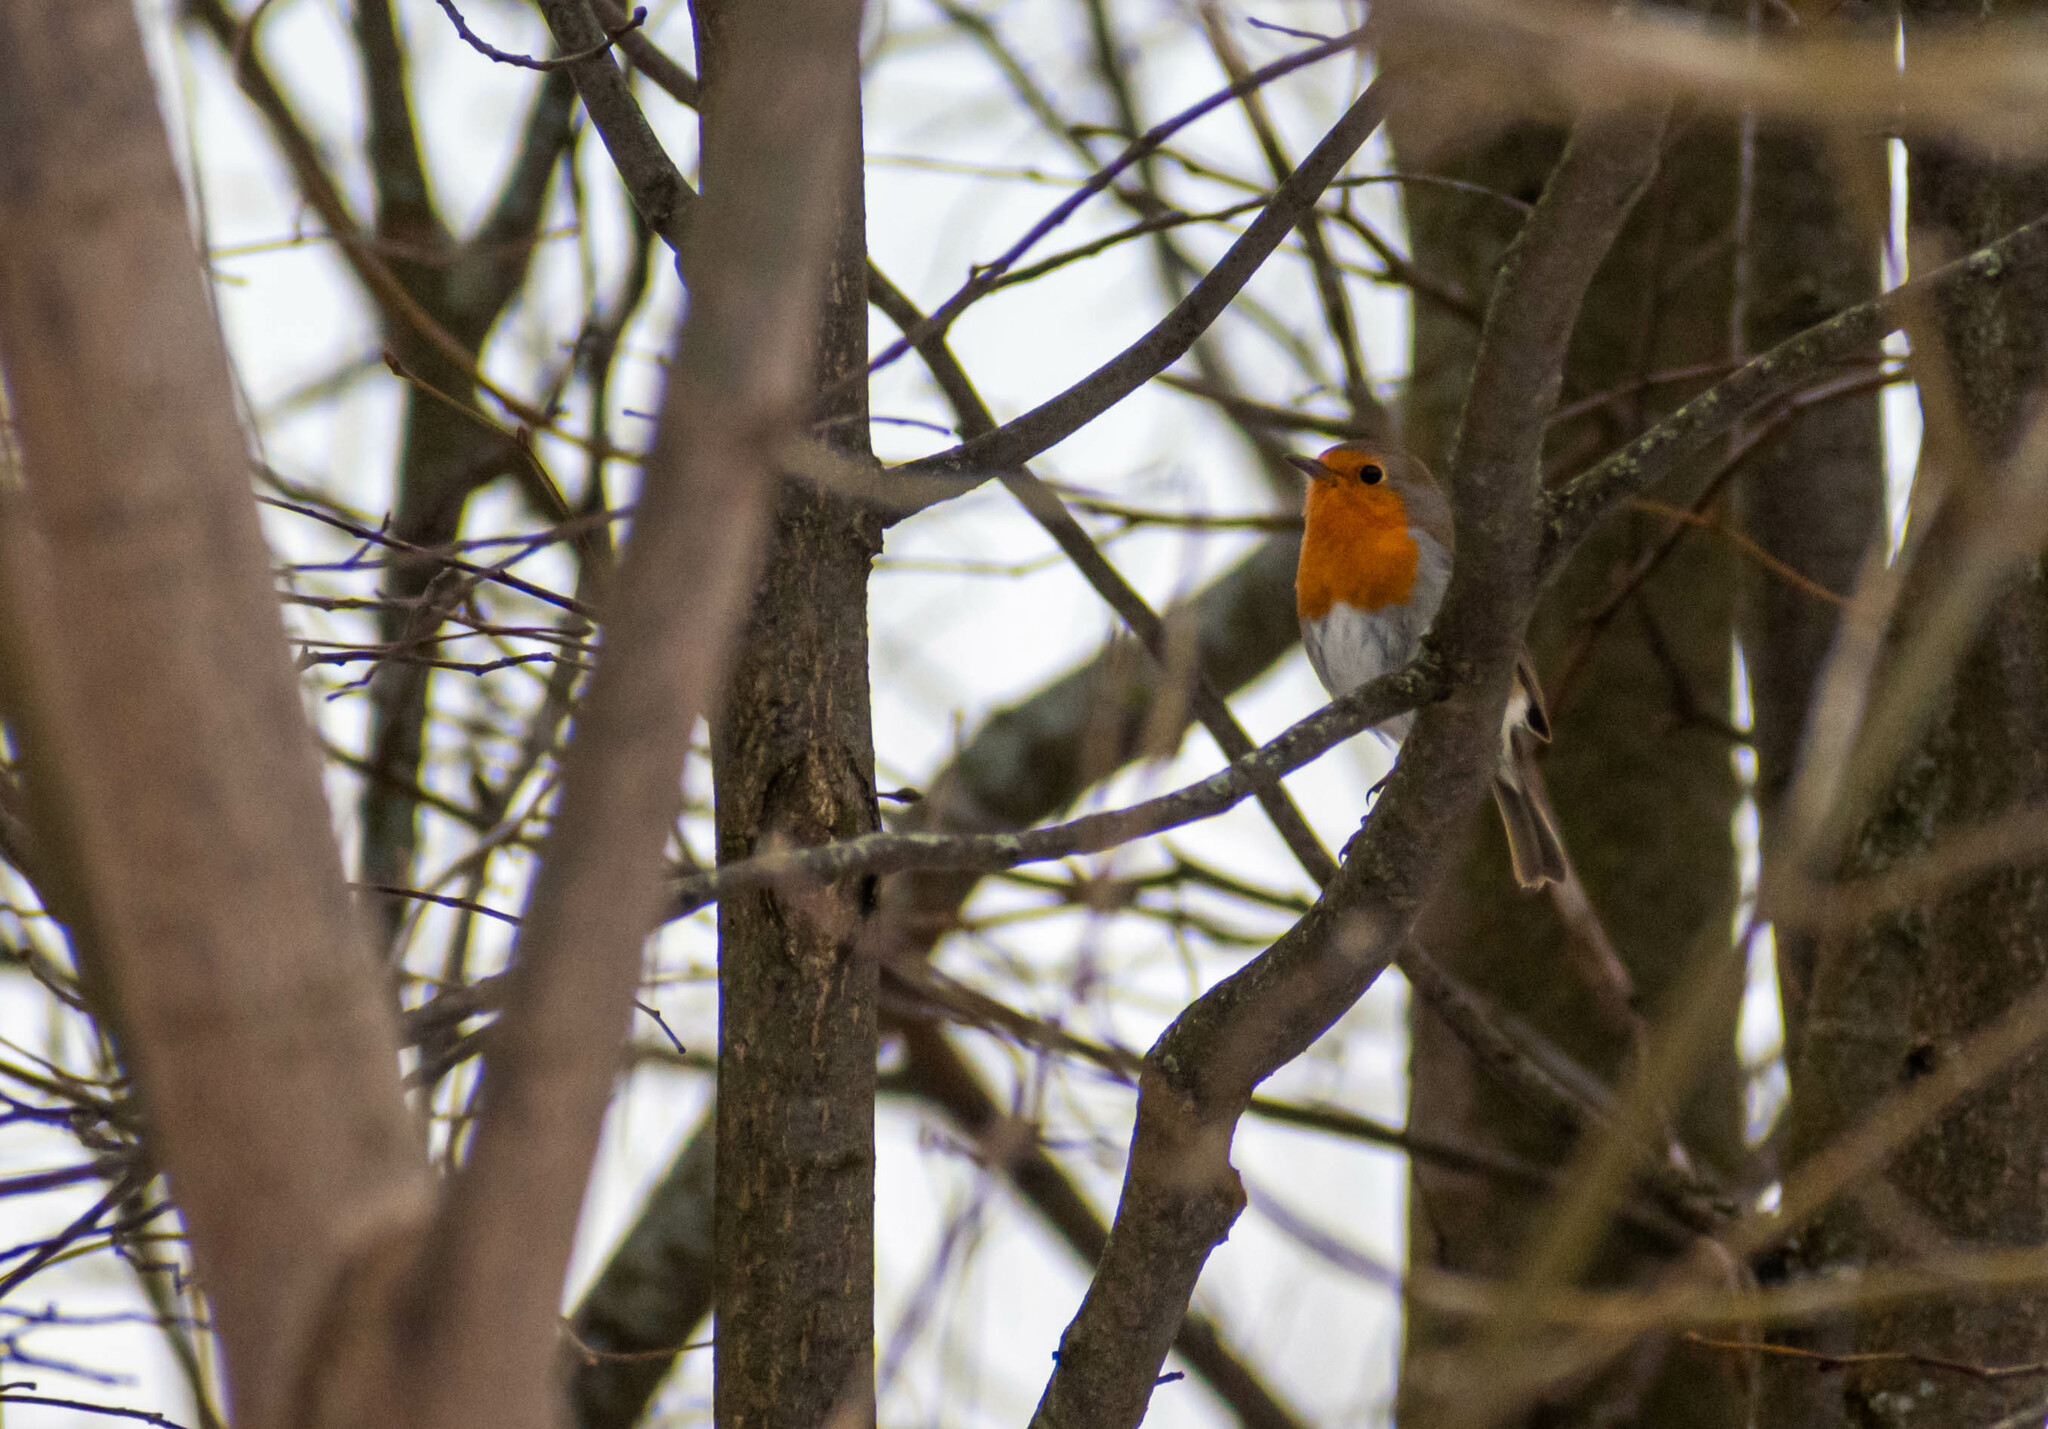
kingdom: Animalia
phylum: Chordata
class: Aves
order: Passeriformes
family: Muscicapidae
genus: Erithacus
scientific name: Erithacus rubecula
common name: European robin
